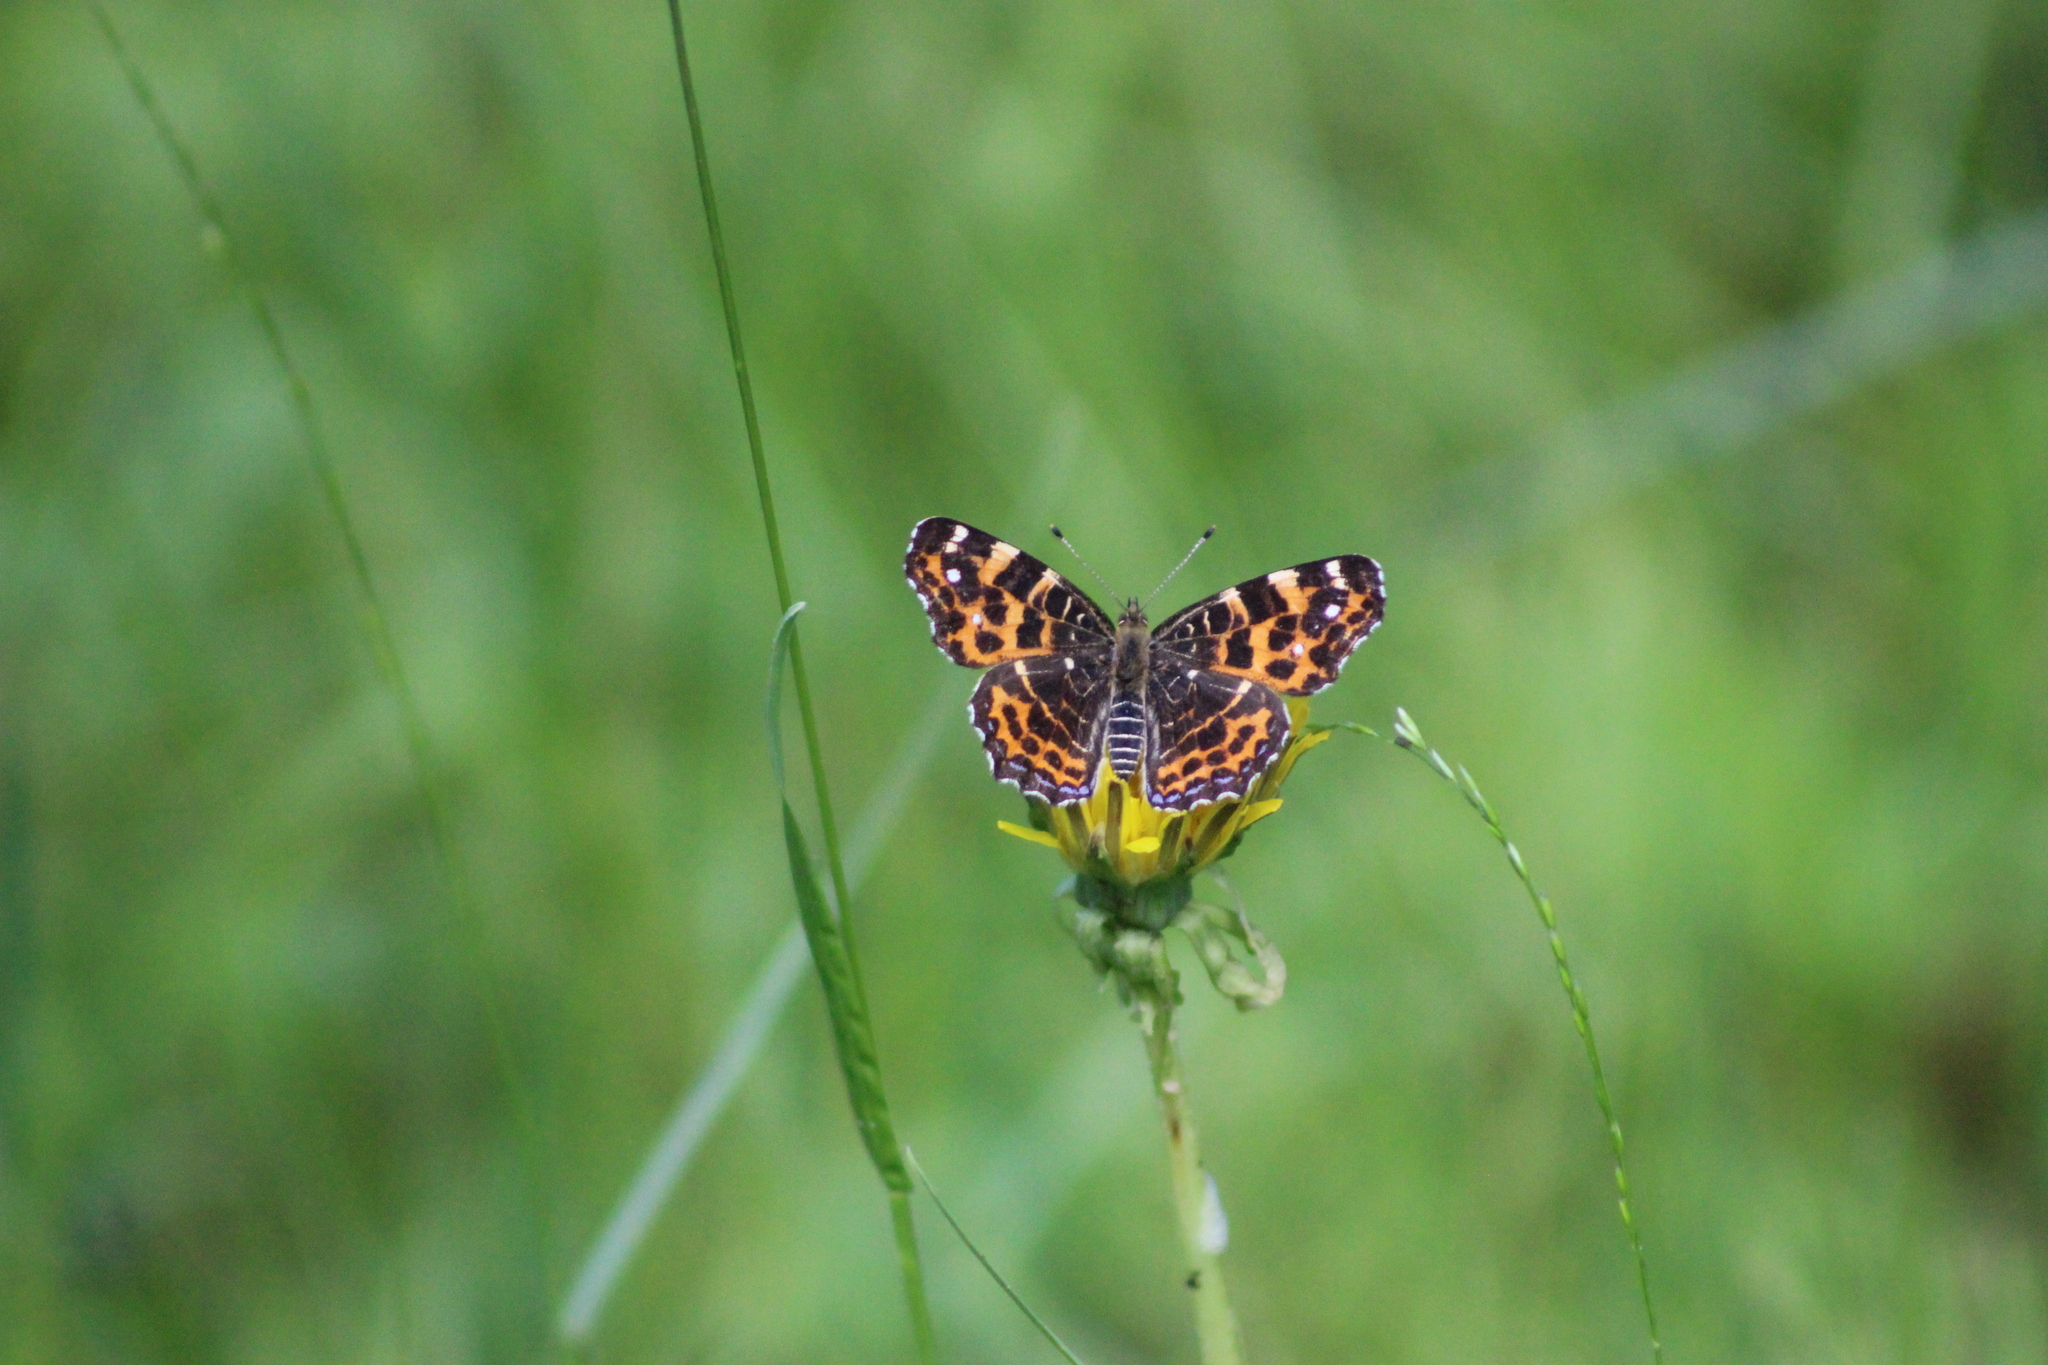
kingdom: Animalia
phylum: Arthropoda
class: Insecta
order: Lepidoptera
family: Nymphalidae
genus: Araschnia
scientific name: Araschnia levana
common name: Map butterfly
